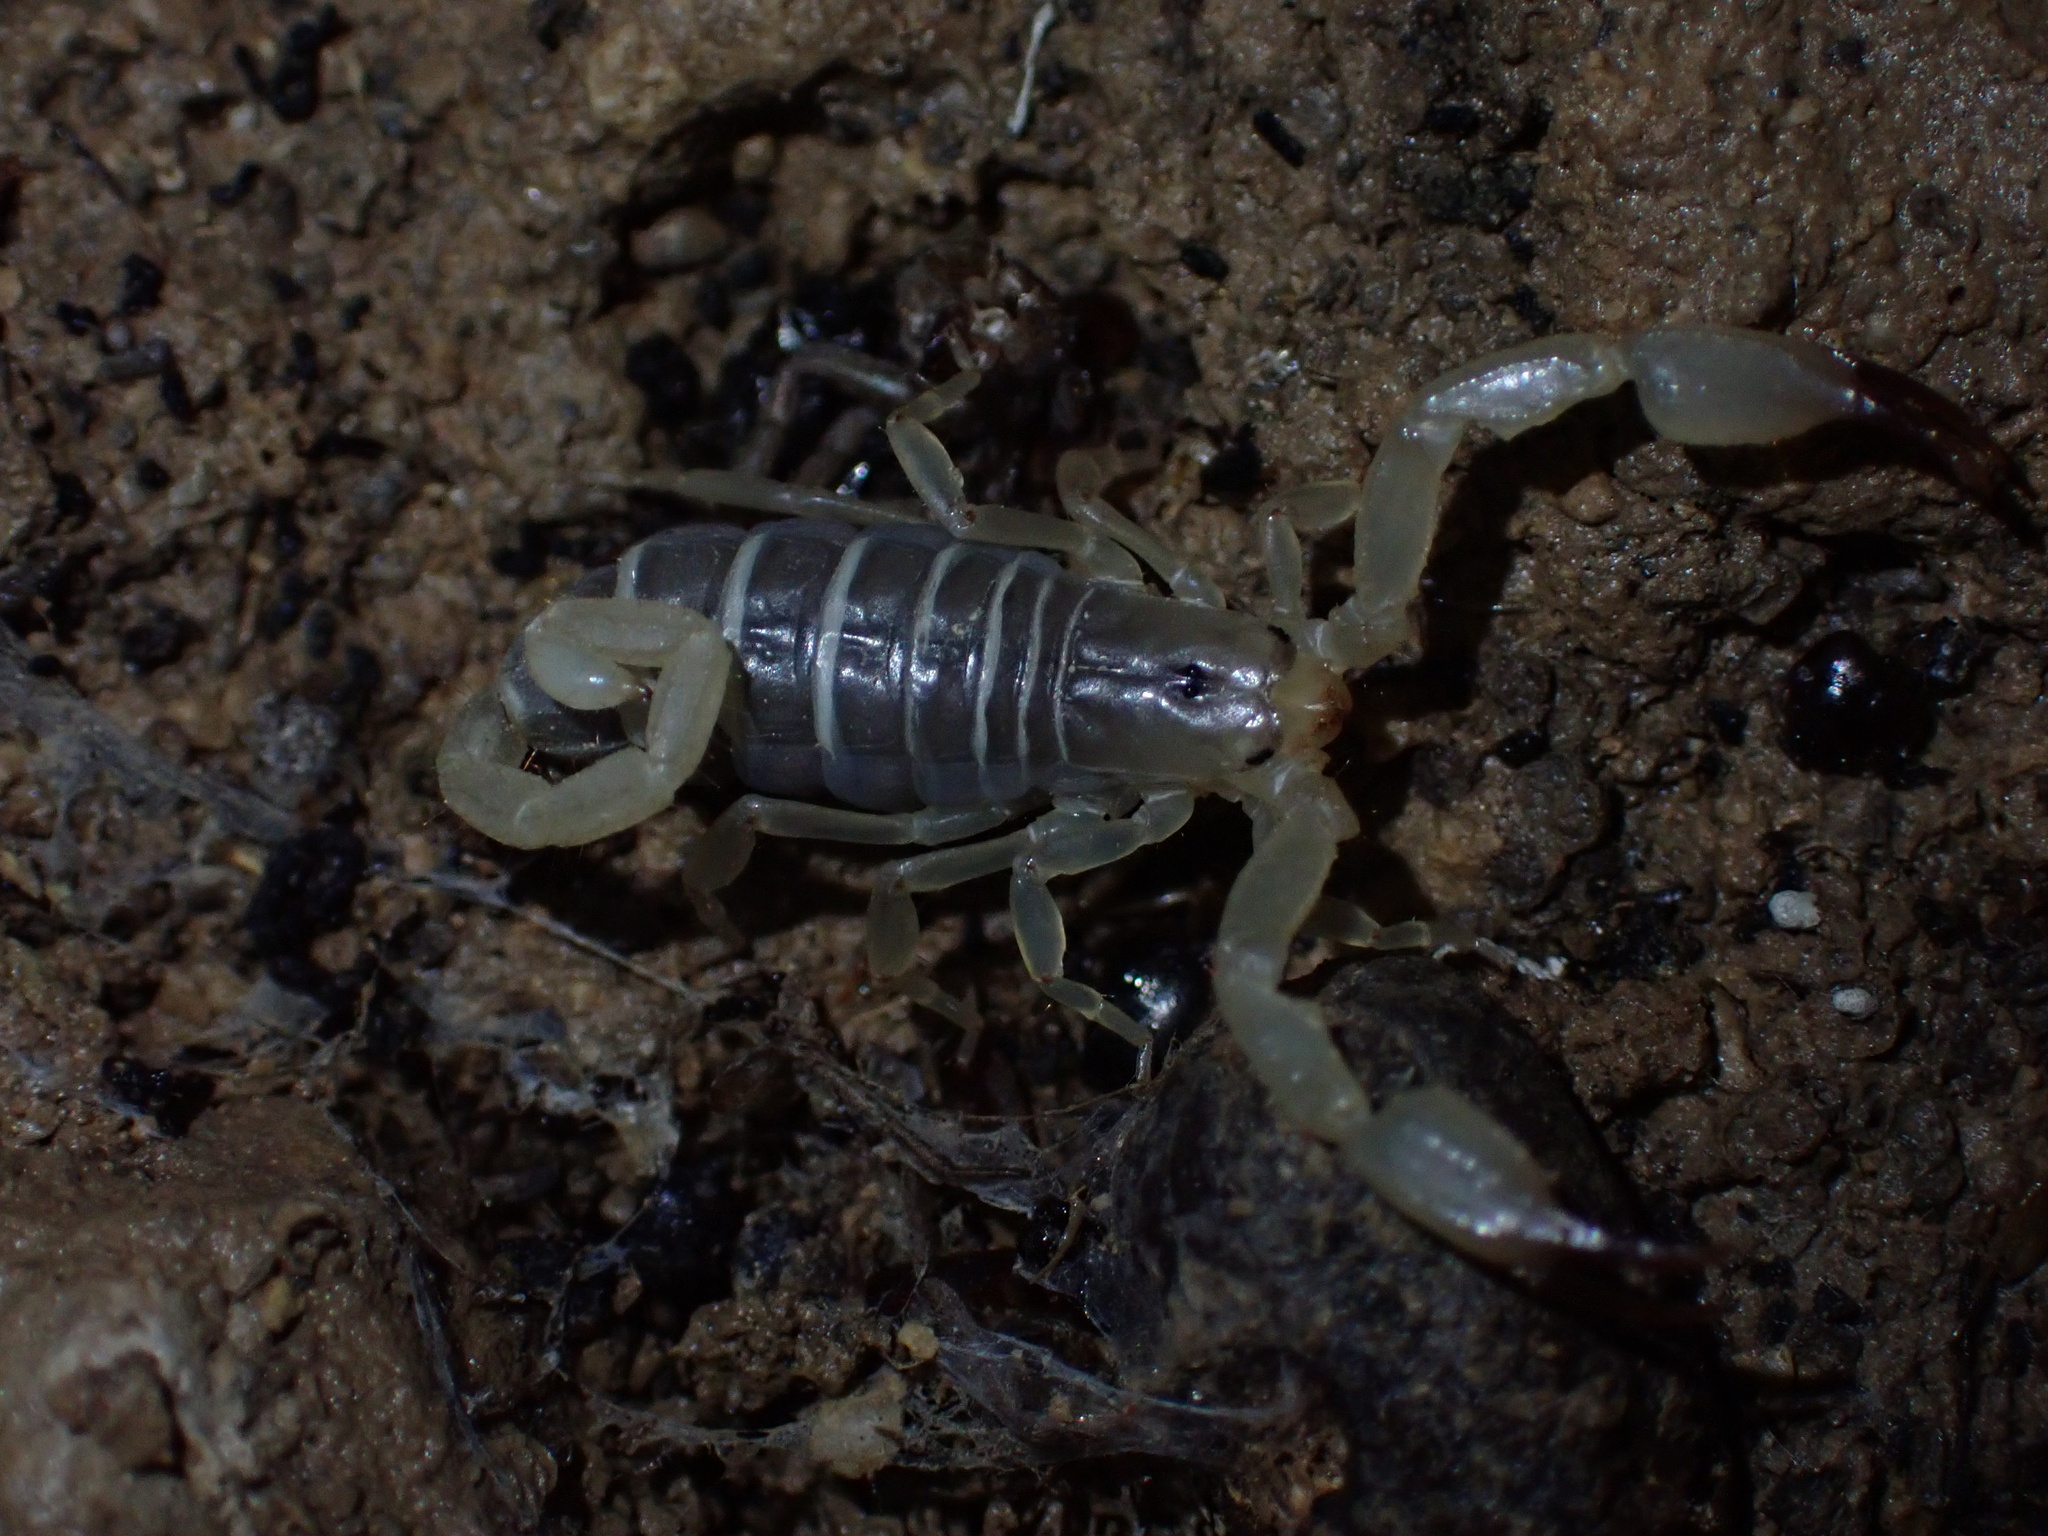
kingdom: Animalia
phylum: Arthropoda
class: Arachnida
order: Scorpiones
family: Hemiscorpiidae
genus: Hemiscorpius
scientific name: Hemiscorpius lepturus
